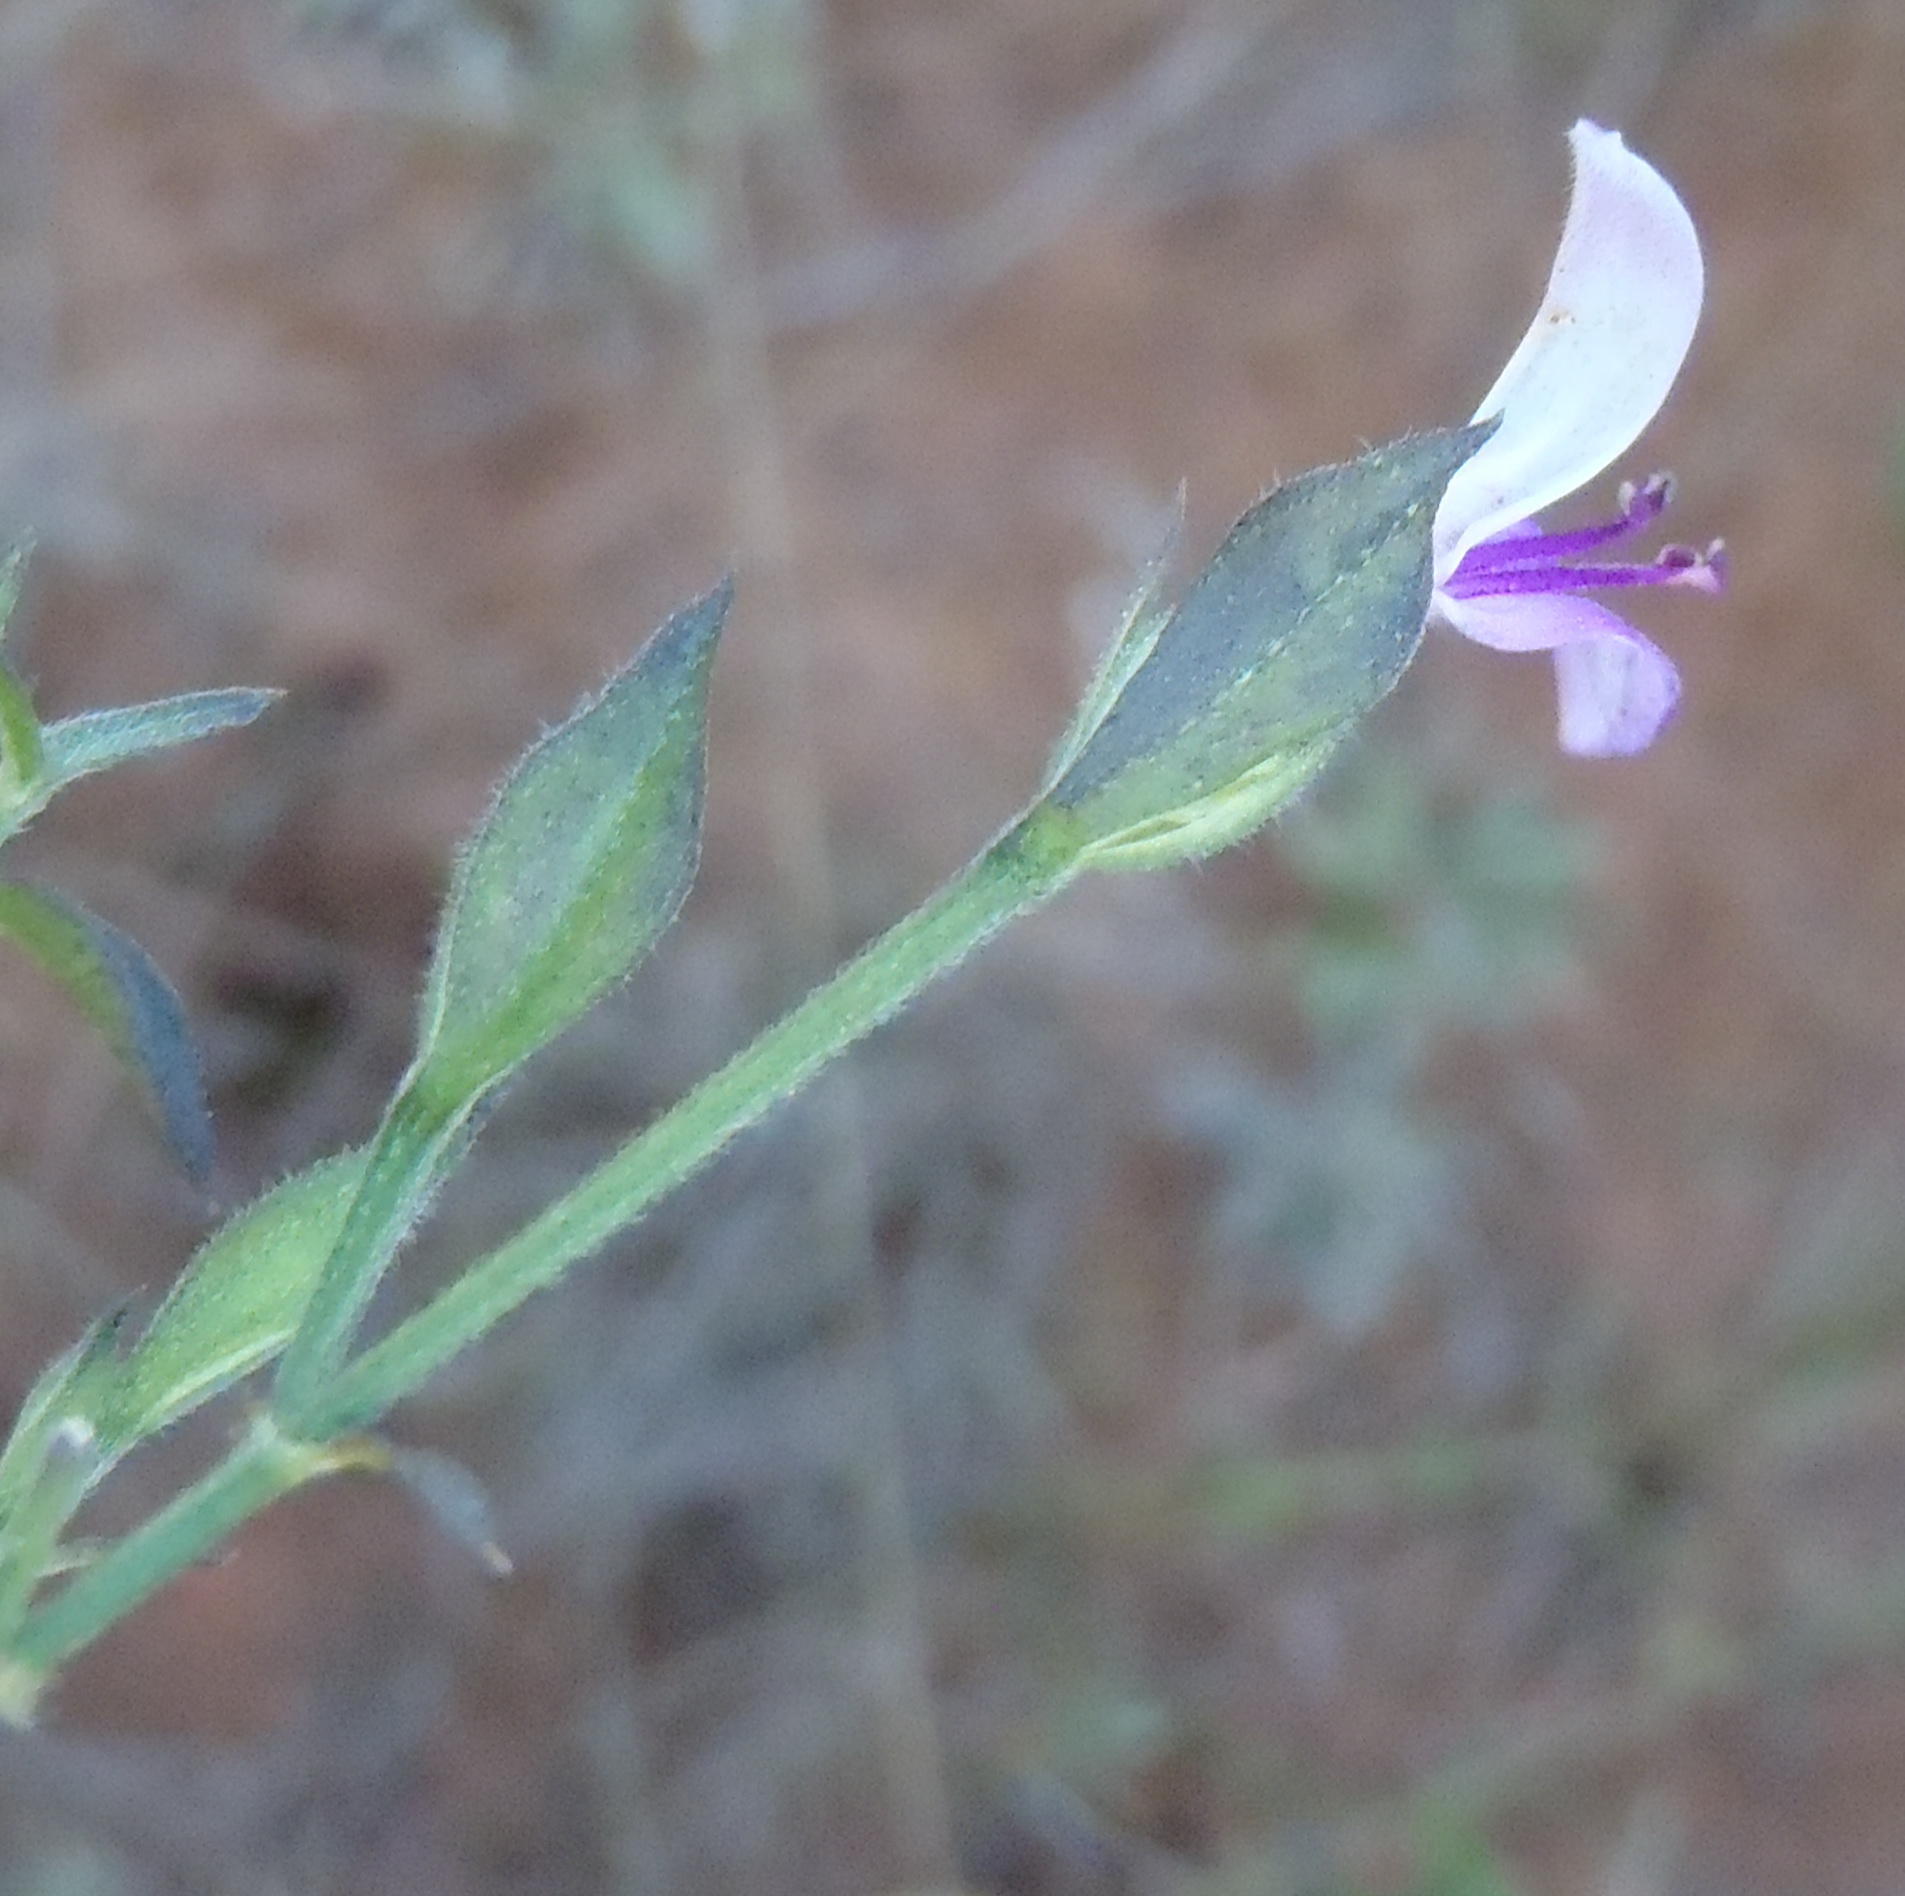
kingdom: Plantae
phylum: Tracheophyta
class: Magnoliopsida
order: Lamiales
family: Acanthaceae
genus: Dicliptera
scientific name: Dicliptera eenii
